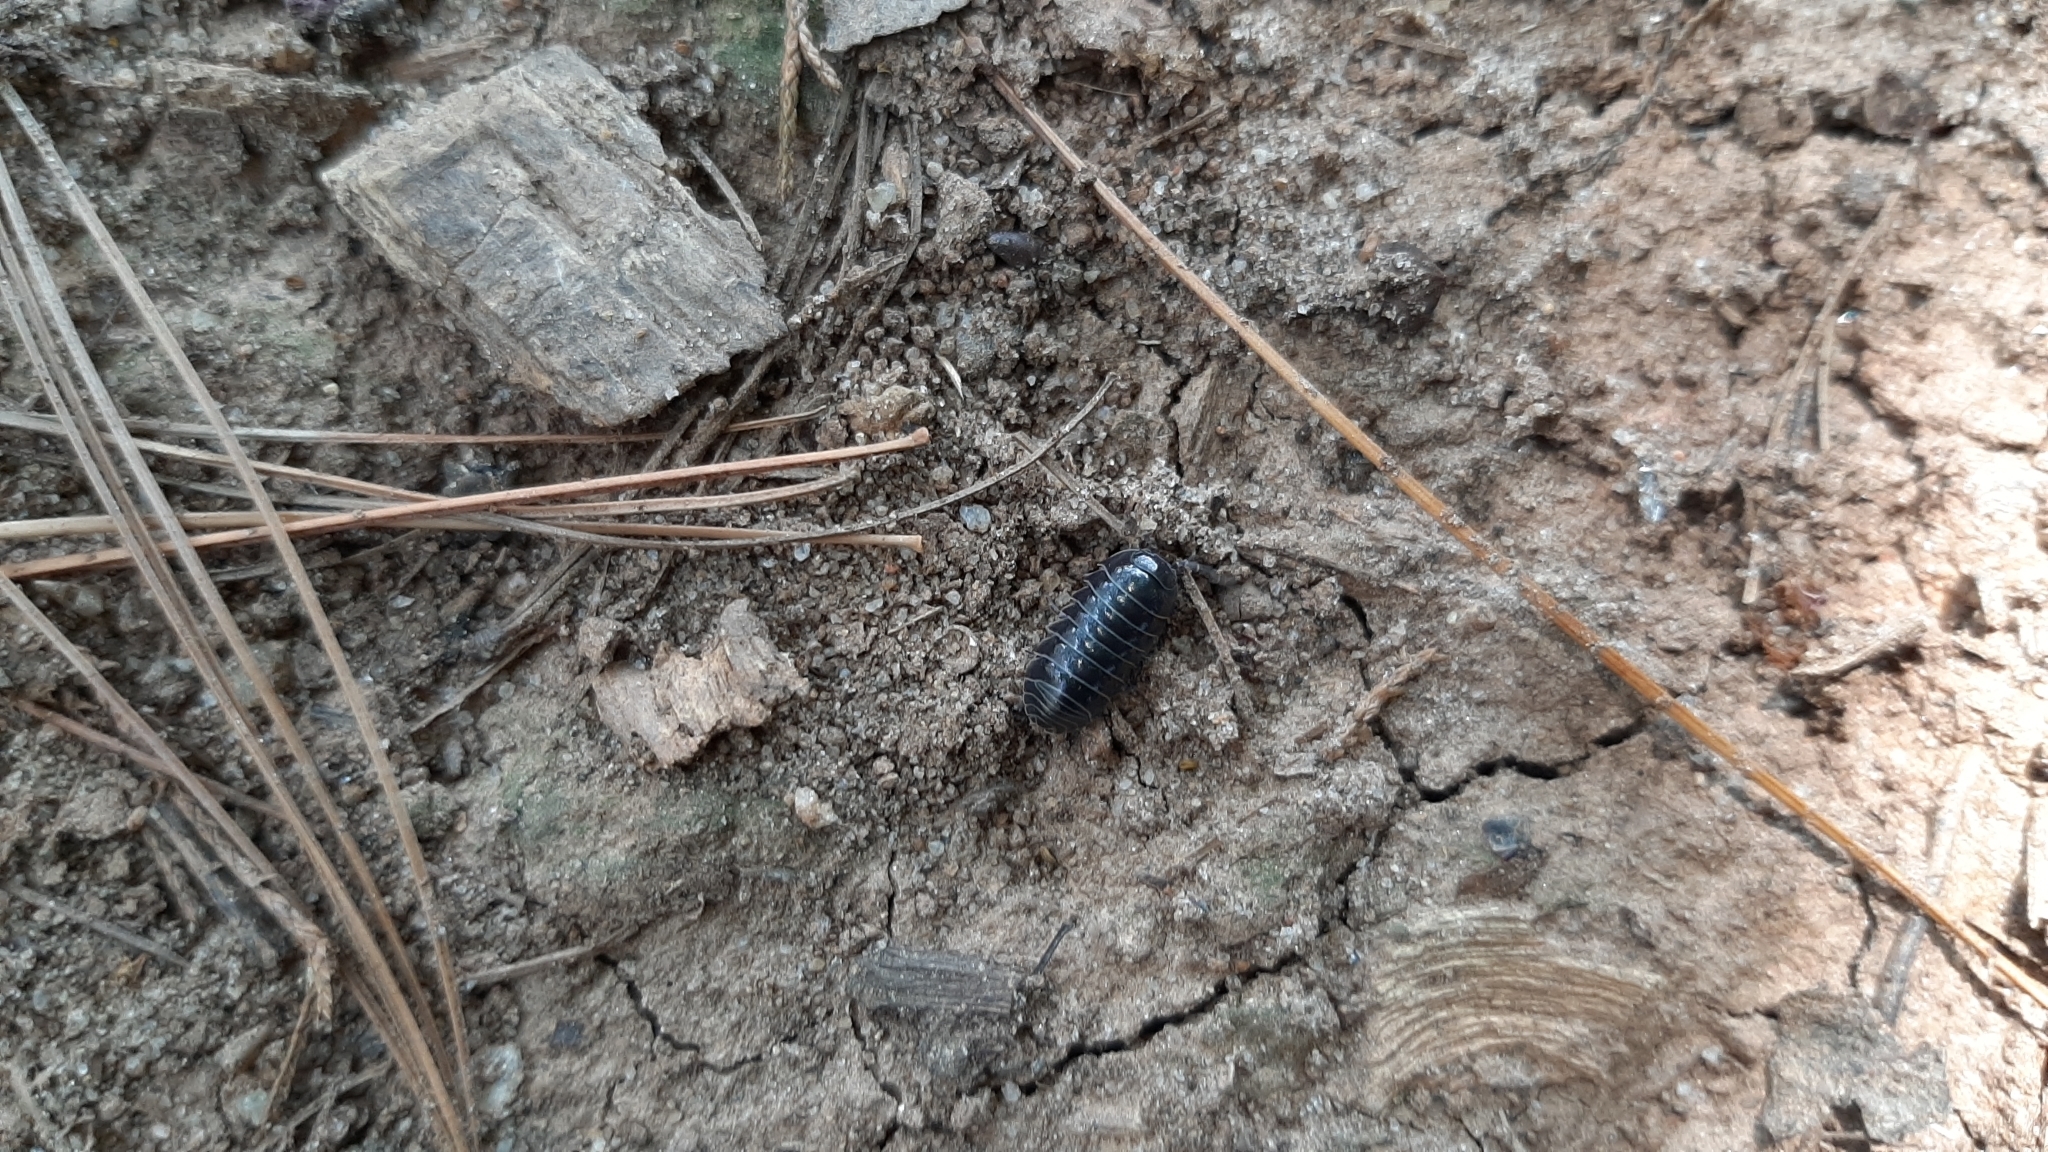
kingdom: Animalia
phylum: Arthropoda
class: Malacostraca
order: Isopoda
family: Armadillidiidae
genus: Armadillidium
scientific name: Armadillidium vulgare
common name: Common pill woodlouse
